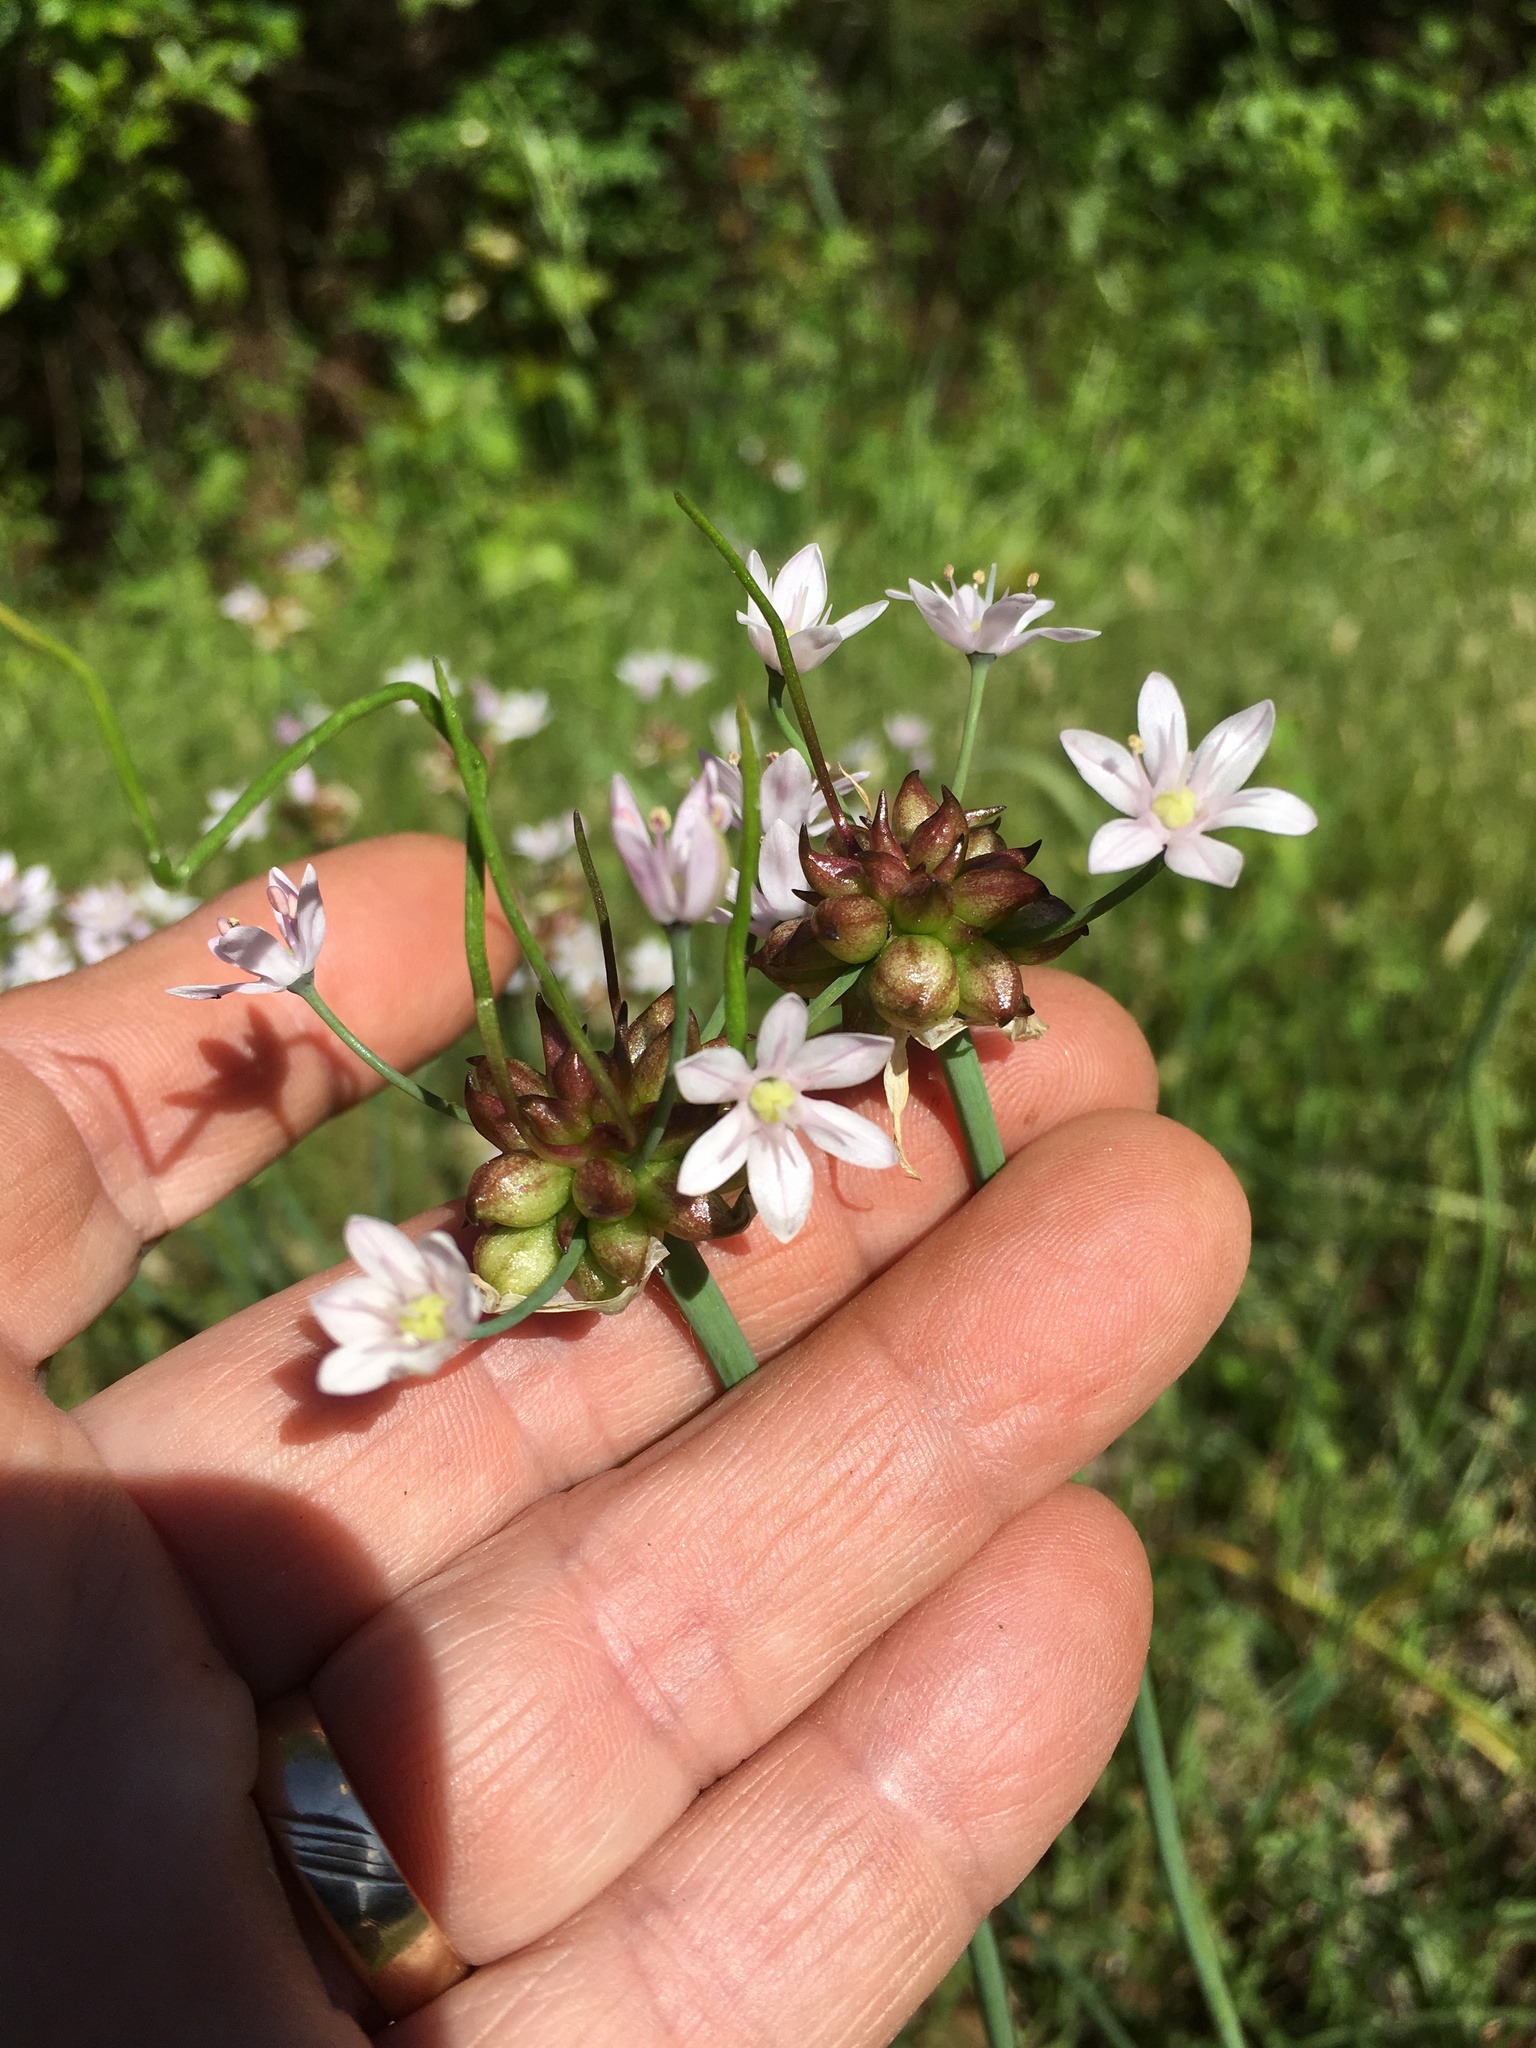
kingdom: Plantae
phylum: Tracheophyta
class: Liliopsida
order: Asparagales
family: Amaryllidaceae
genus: Allium
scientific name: Allium canadense
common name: Meadow garlic
